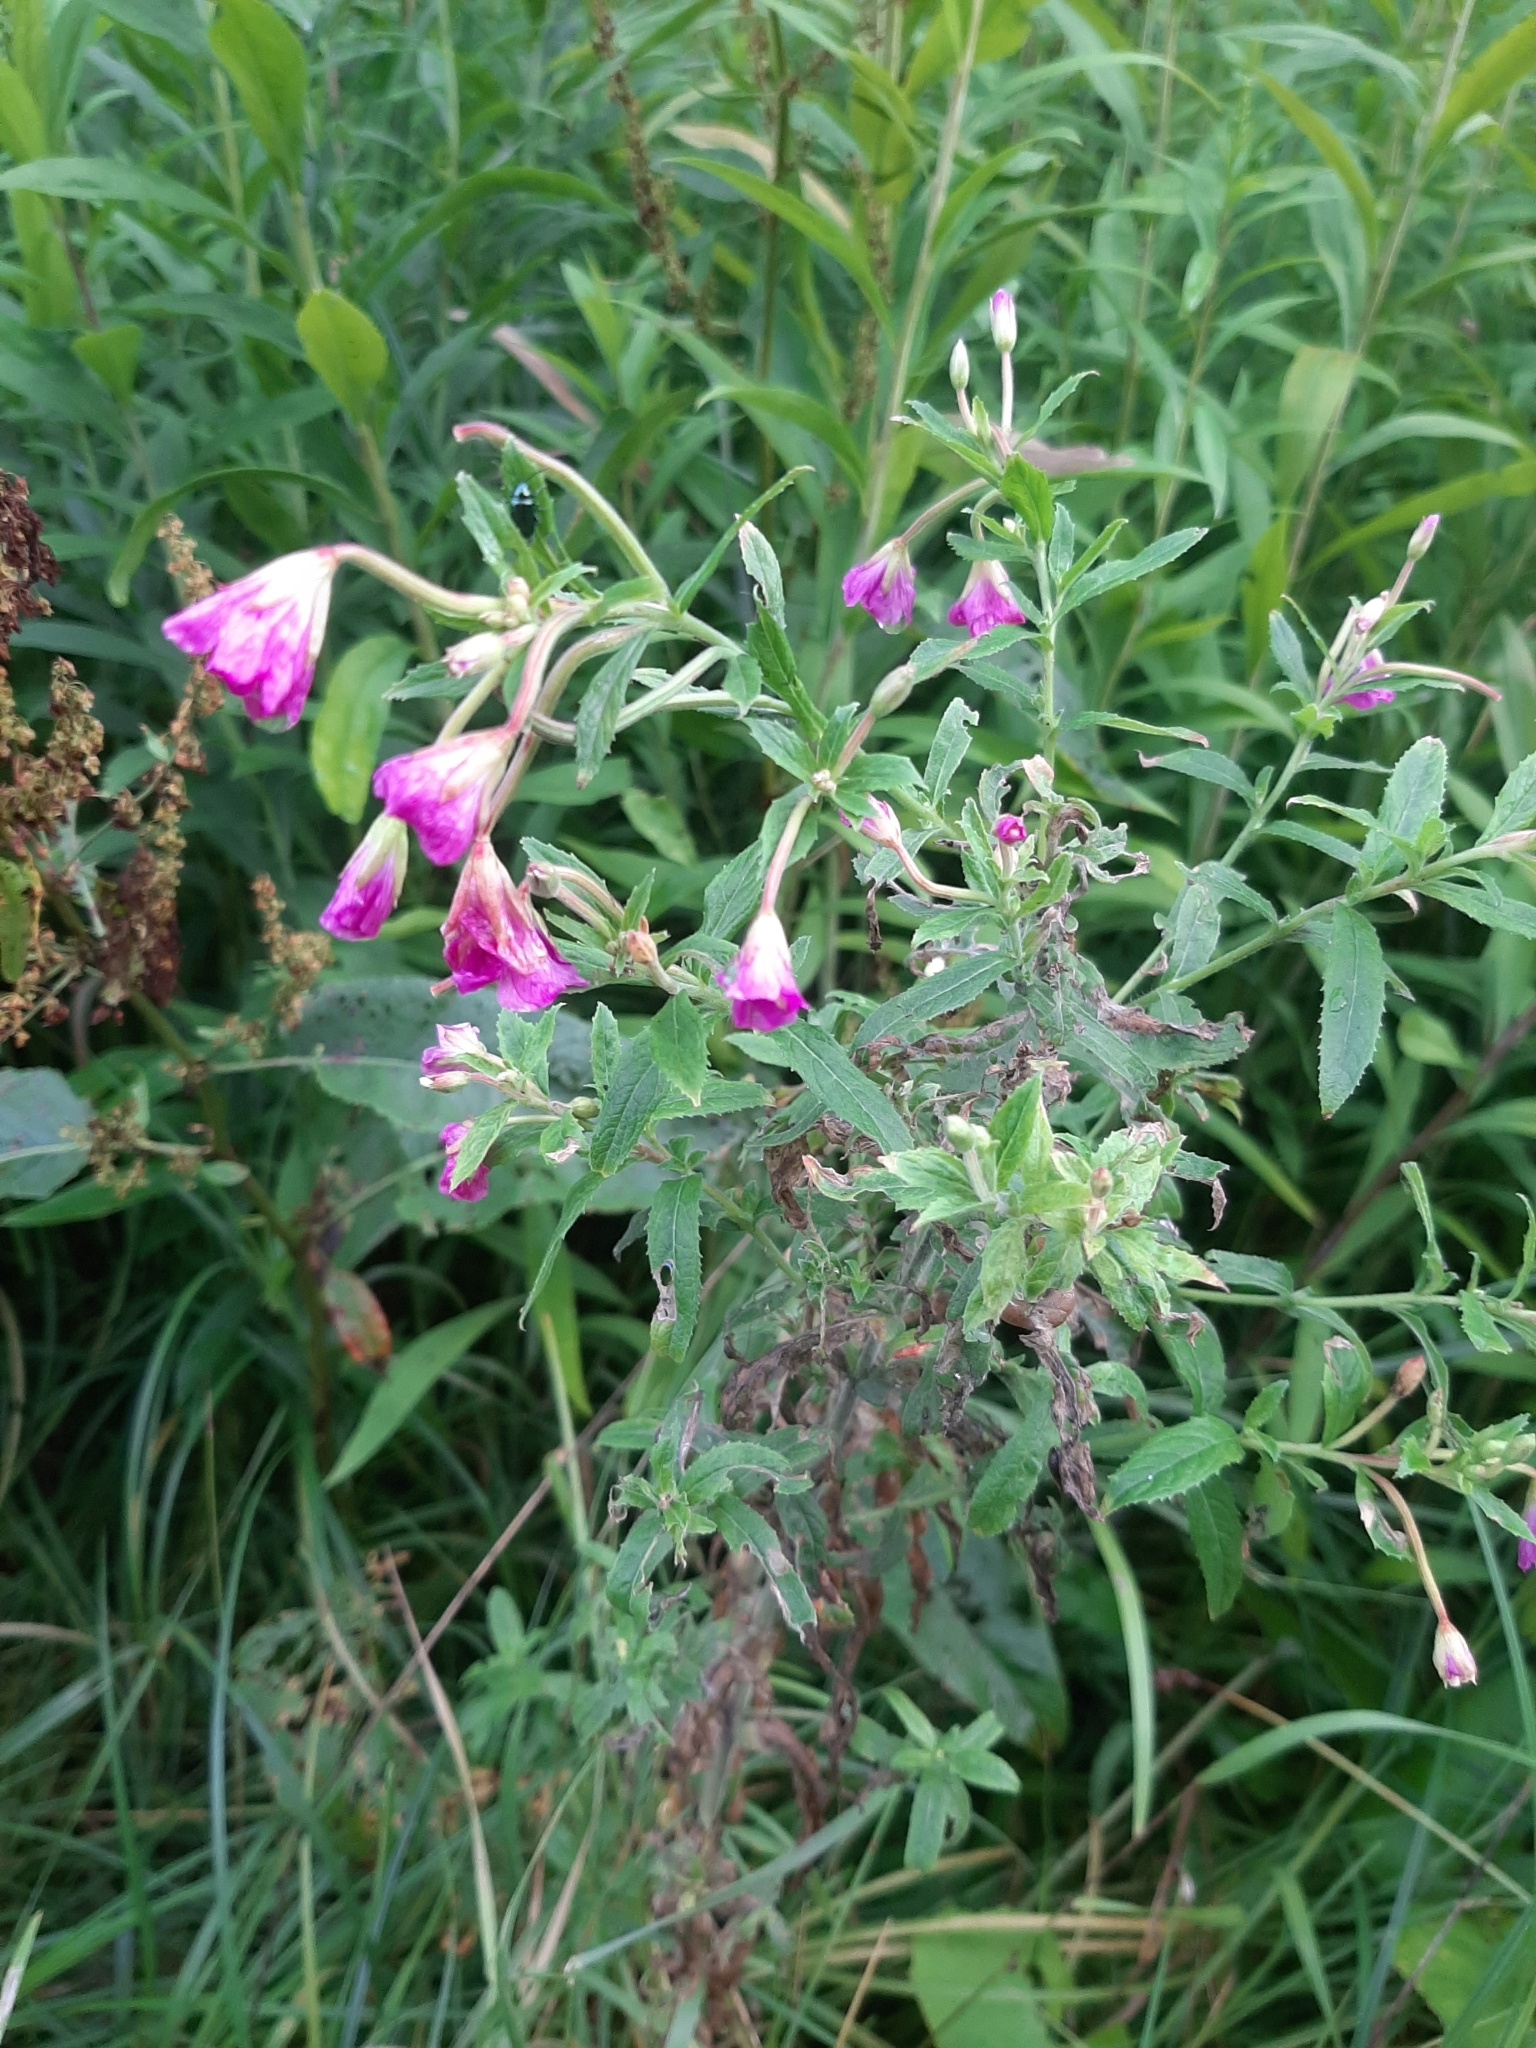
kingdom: Plantae
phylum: Tracheophyta
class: Magnoliopsida
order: Myrtales
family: Onagraceae
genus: Epilobium
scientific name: Epilobium hirsutum
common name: Great willowherb
